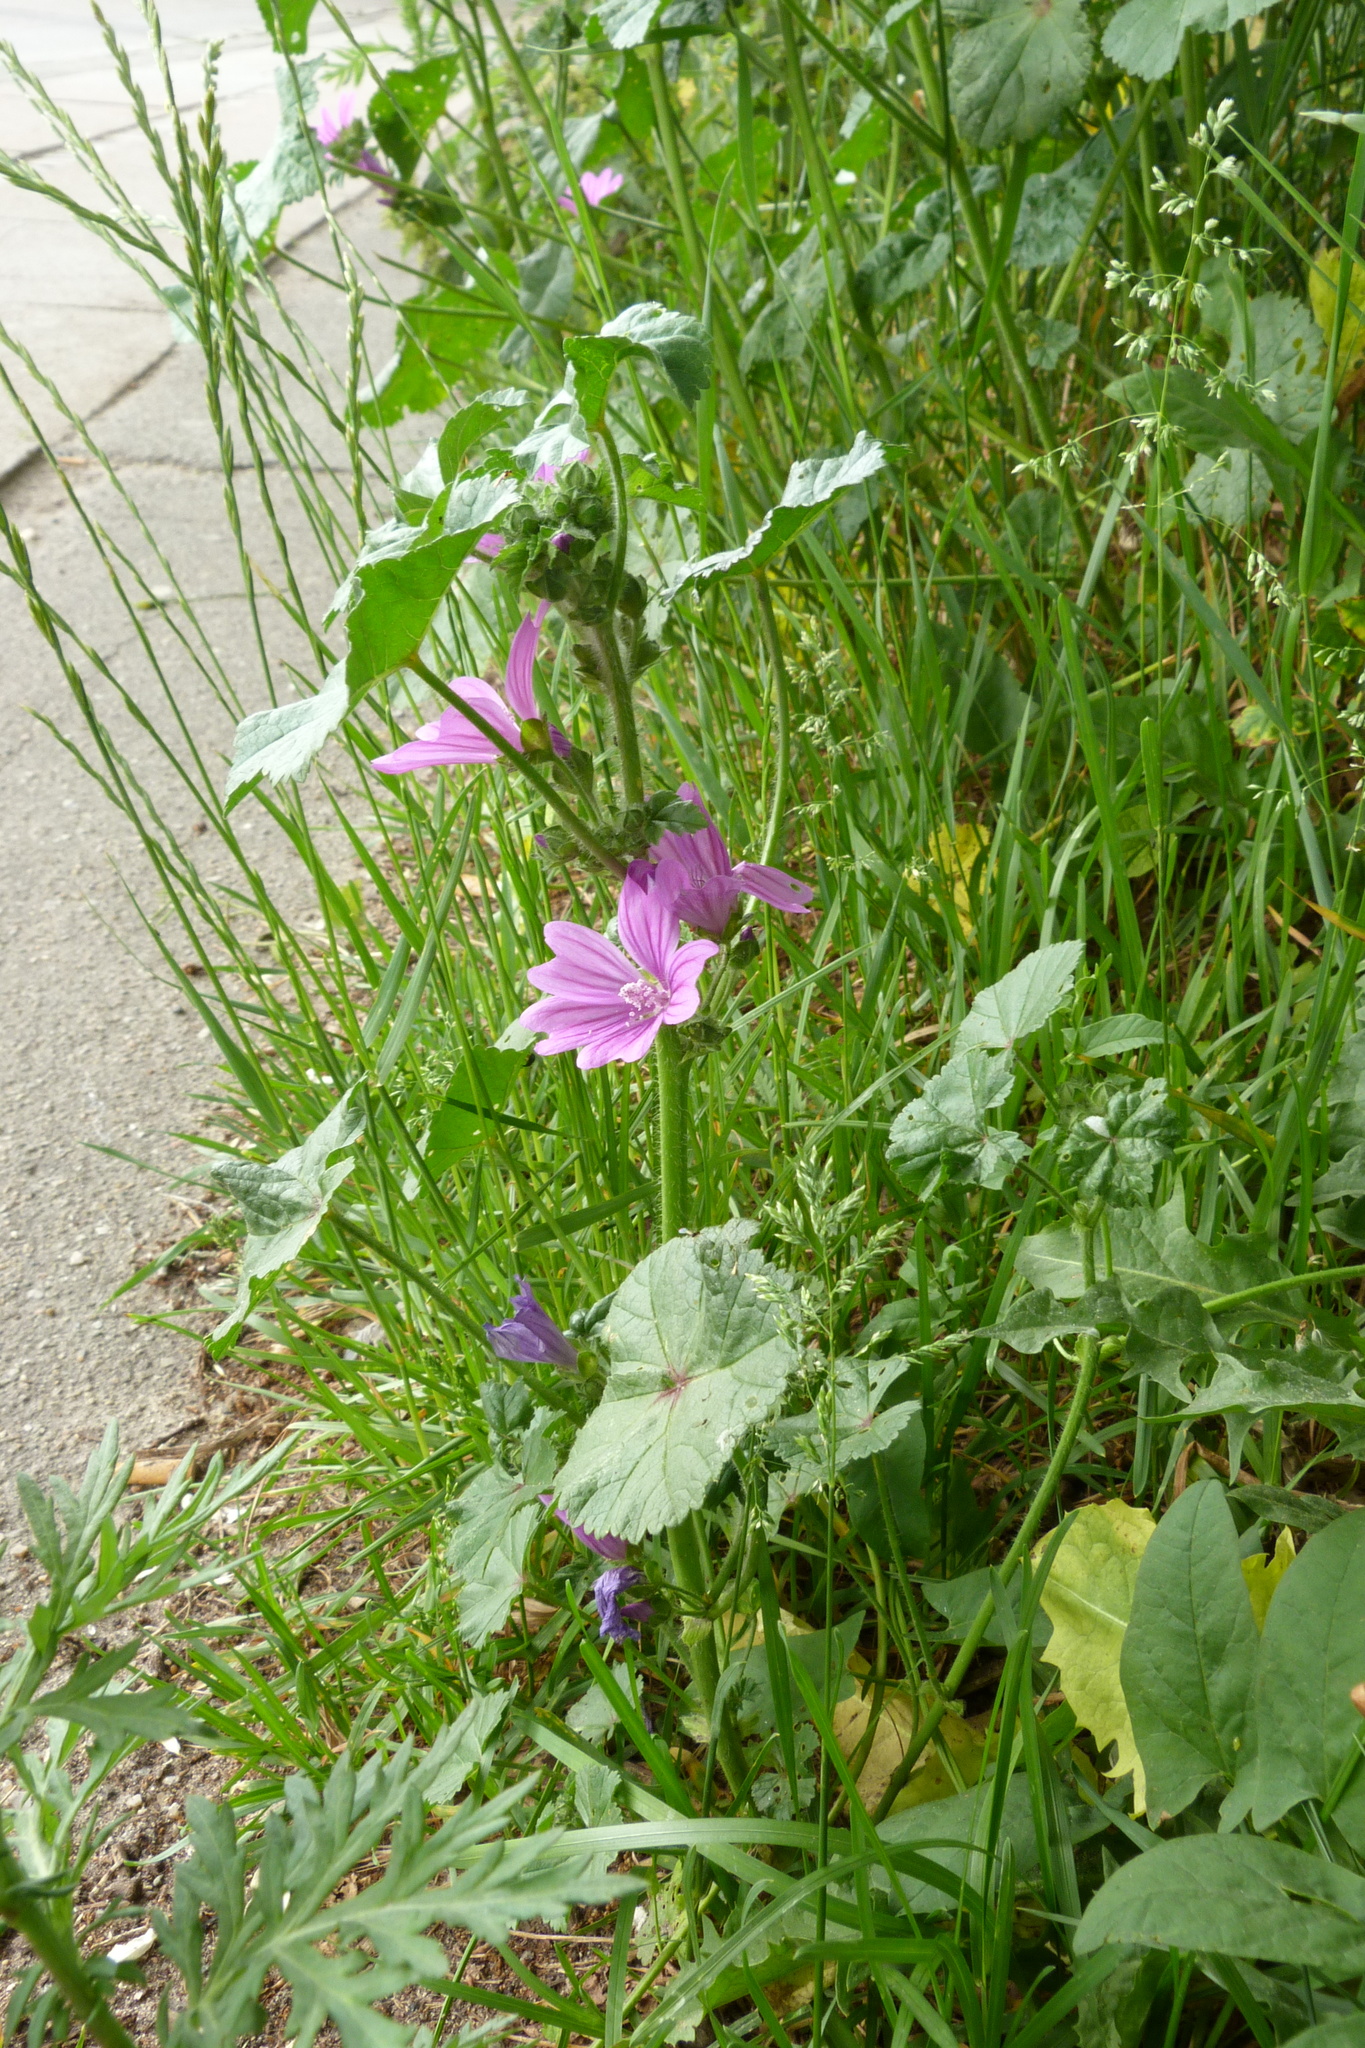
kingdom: Plantae
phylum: Tracheophyta
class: Magnoliopsida
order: Malvales
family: Malvaceae
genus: Malva
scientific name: Malva sylvestris
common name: Common mallow
